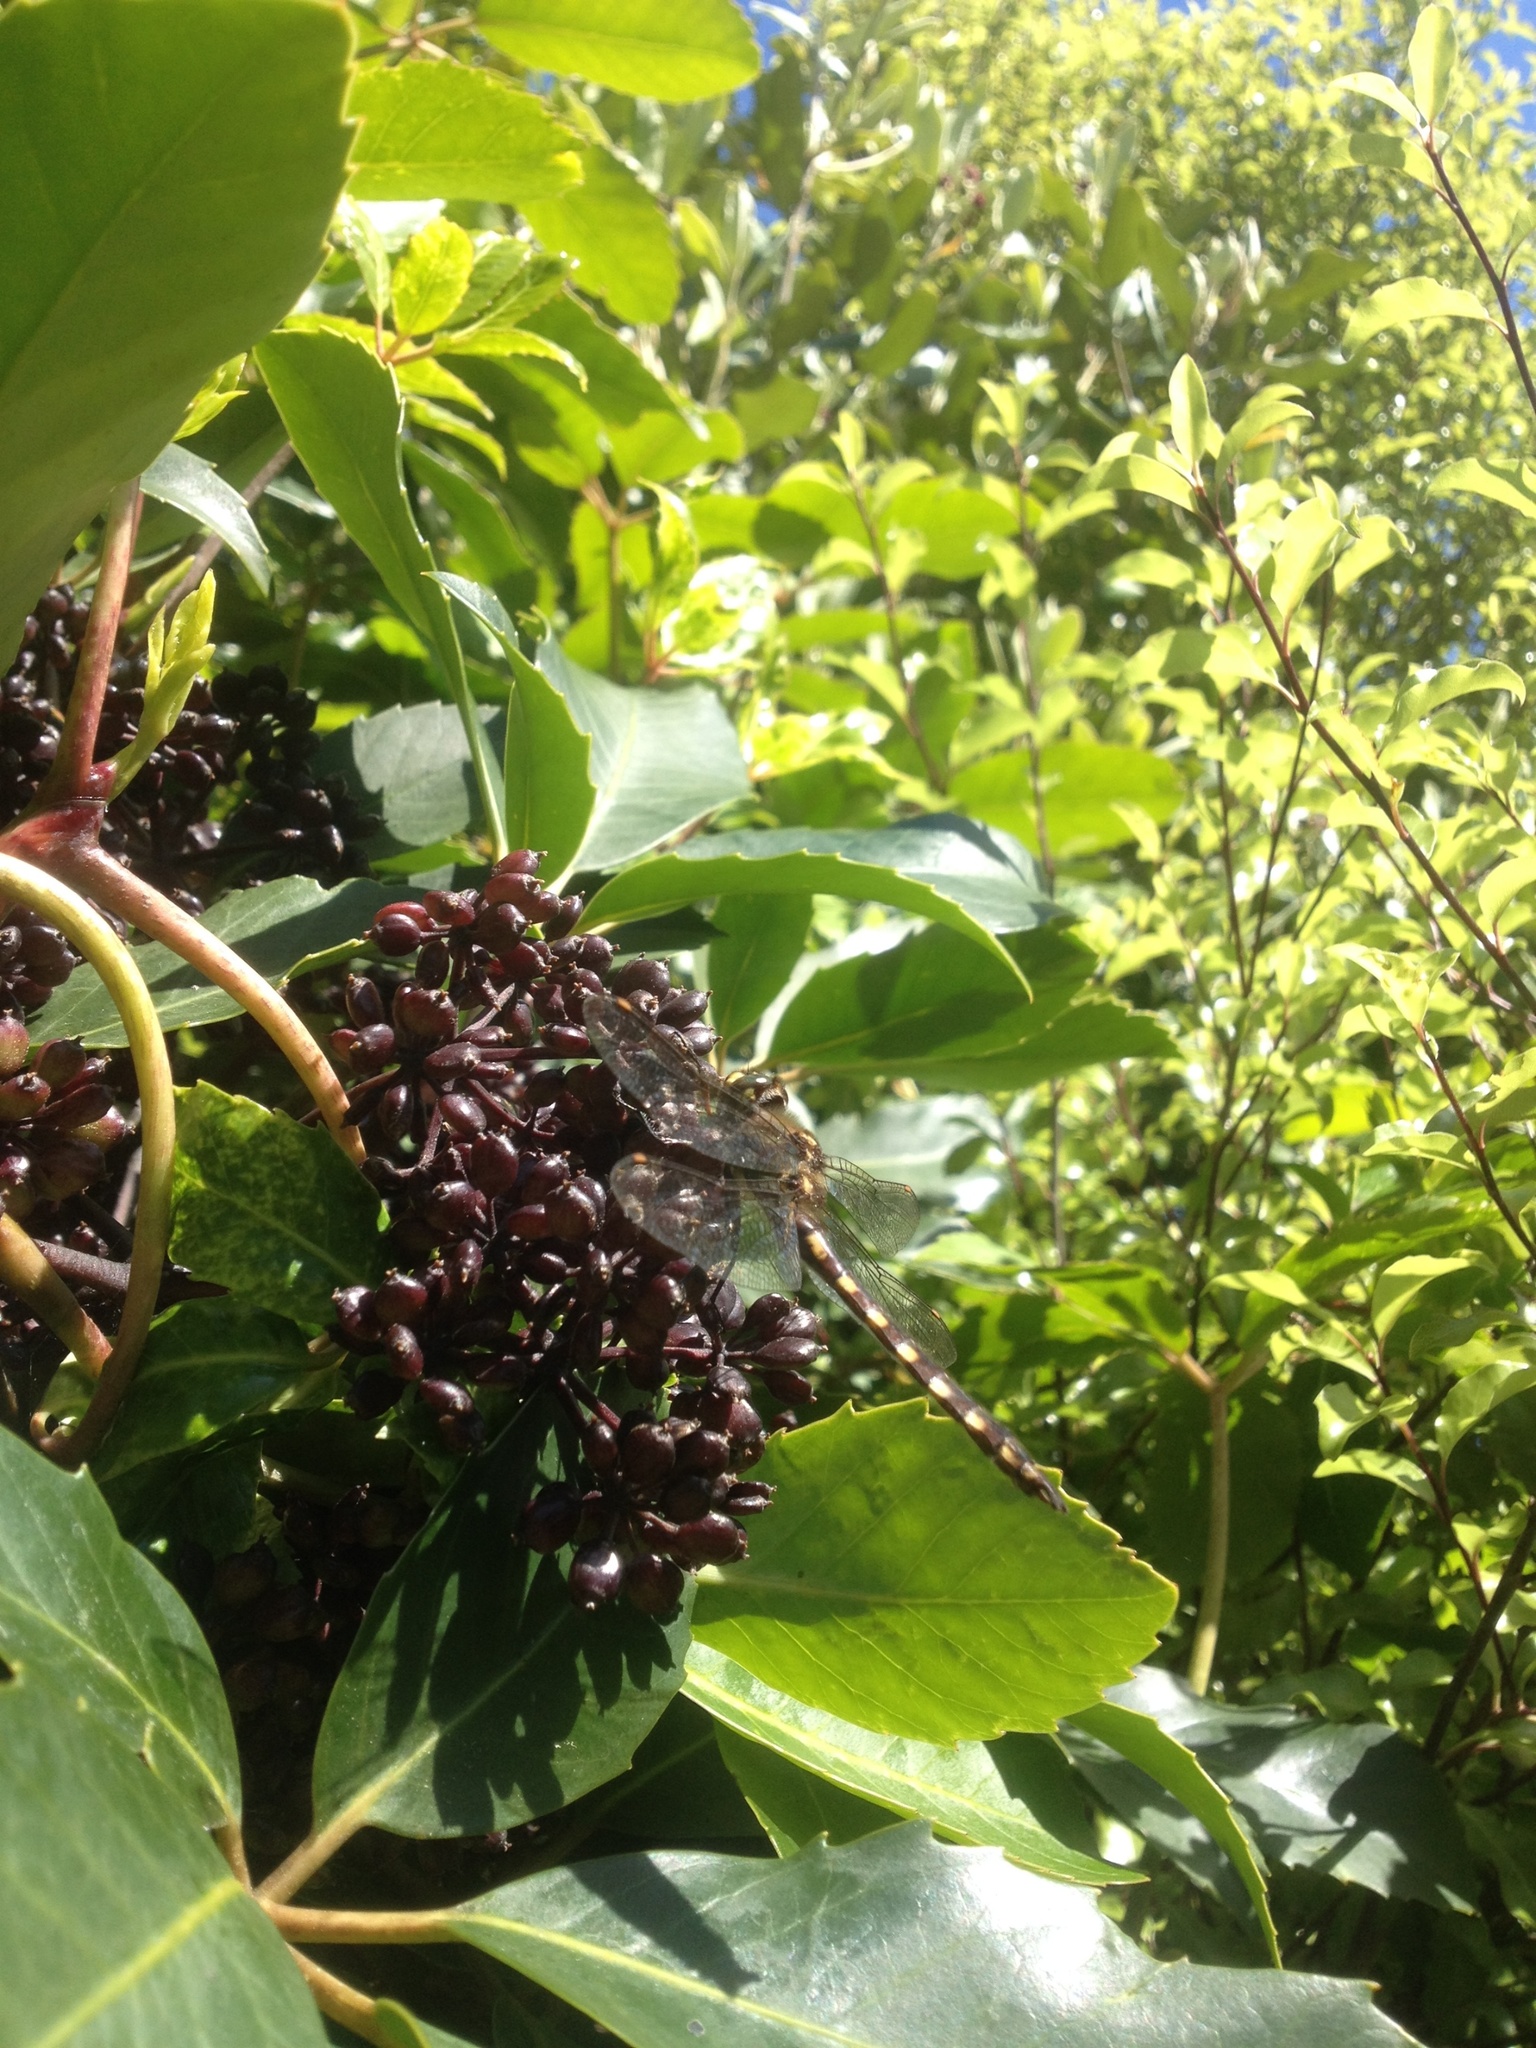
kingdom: Animalia
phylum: Arthropoda
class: Insecta
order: Odonata
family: Corduliidae
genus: Procordulia
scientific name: Procordulia grayi
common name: Yellow spotted dragonfly
